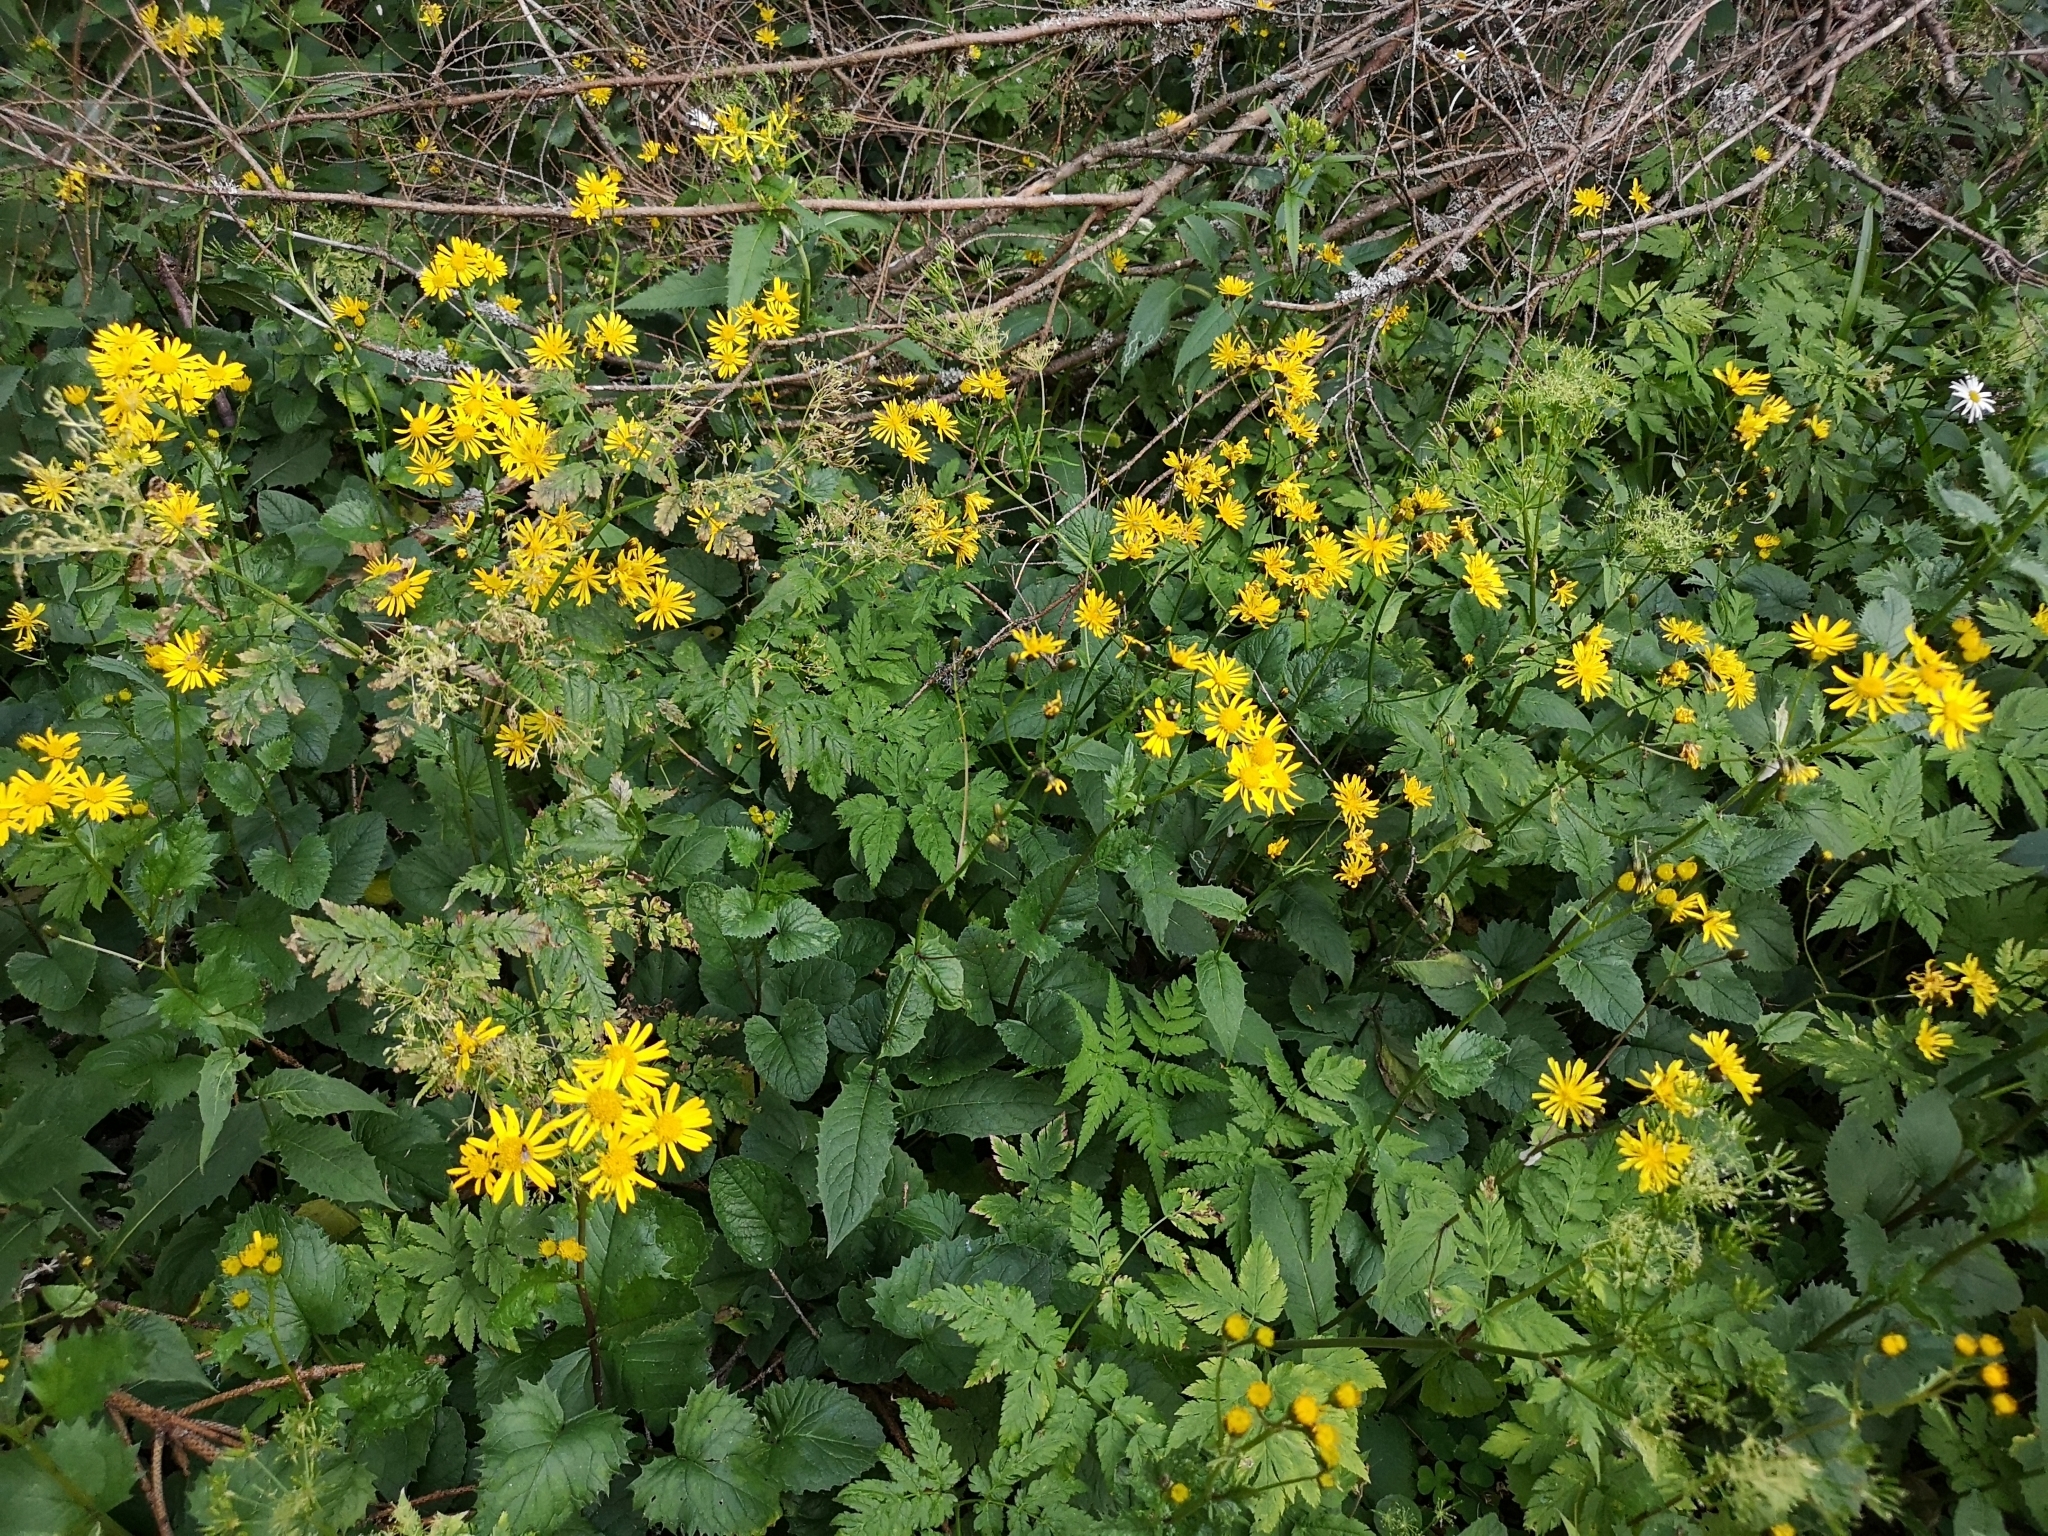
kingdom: Plantae
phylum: Tracheophyta
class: Magnoliopsida
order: Asterales
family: Asteraceae
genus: Jacobaea
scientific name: Jacobaea subalpina
